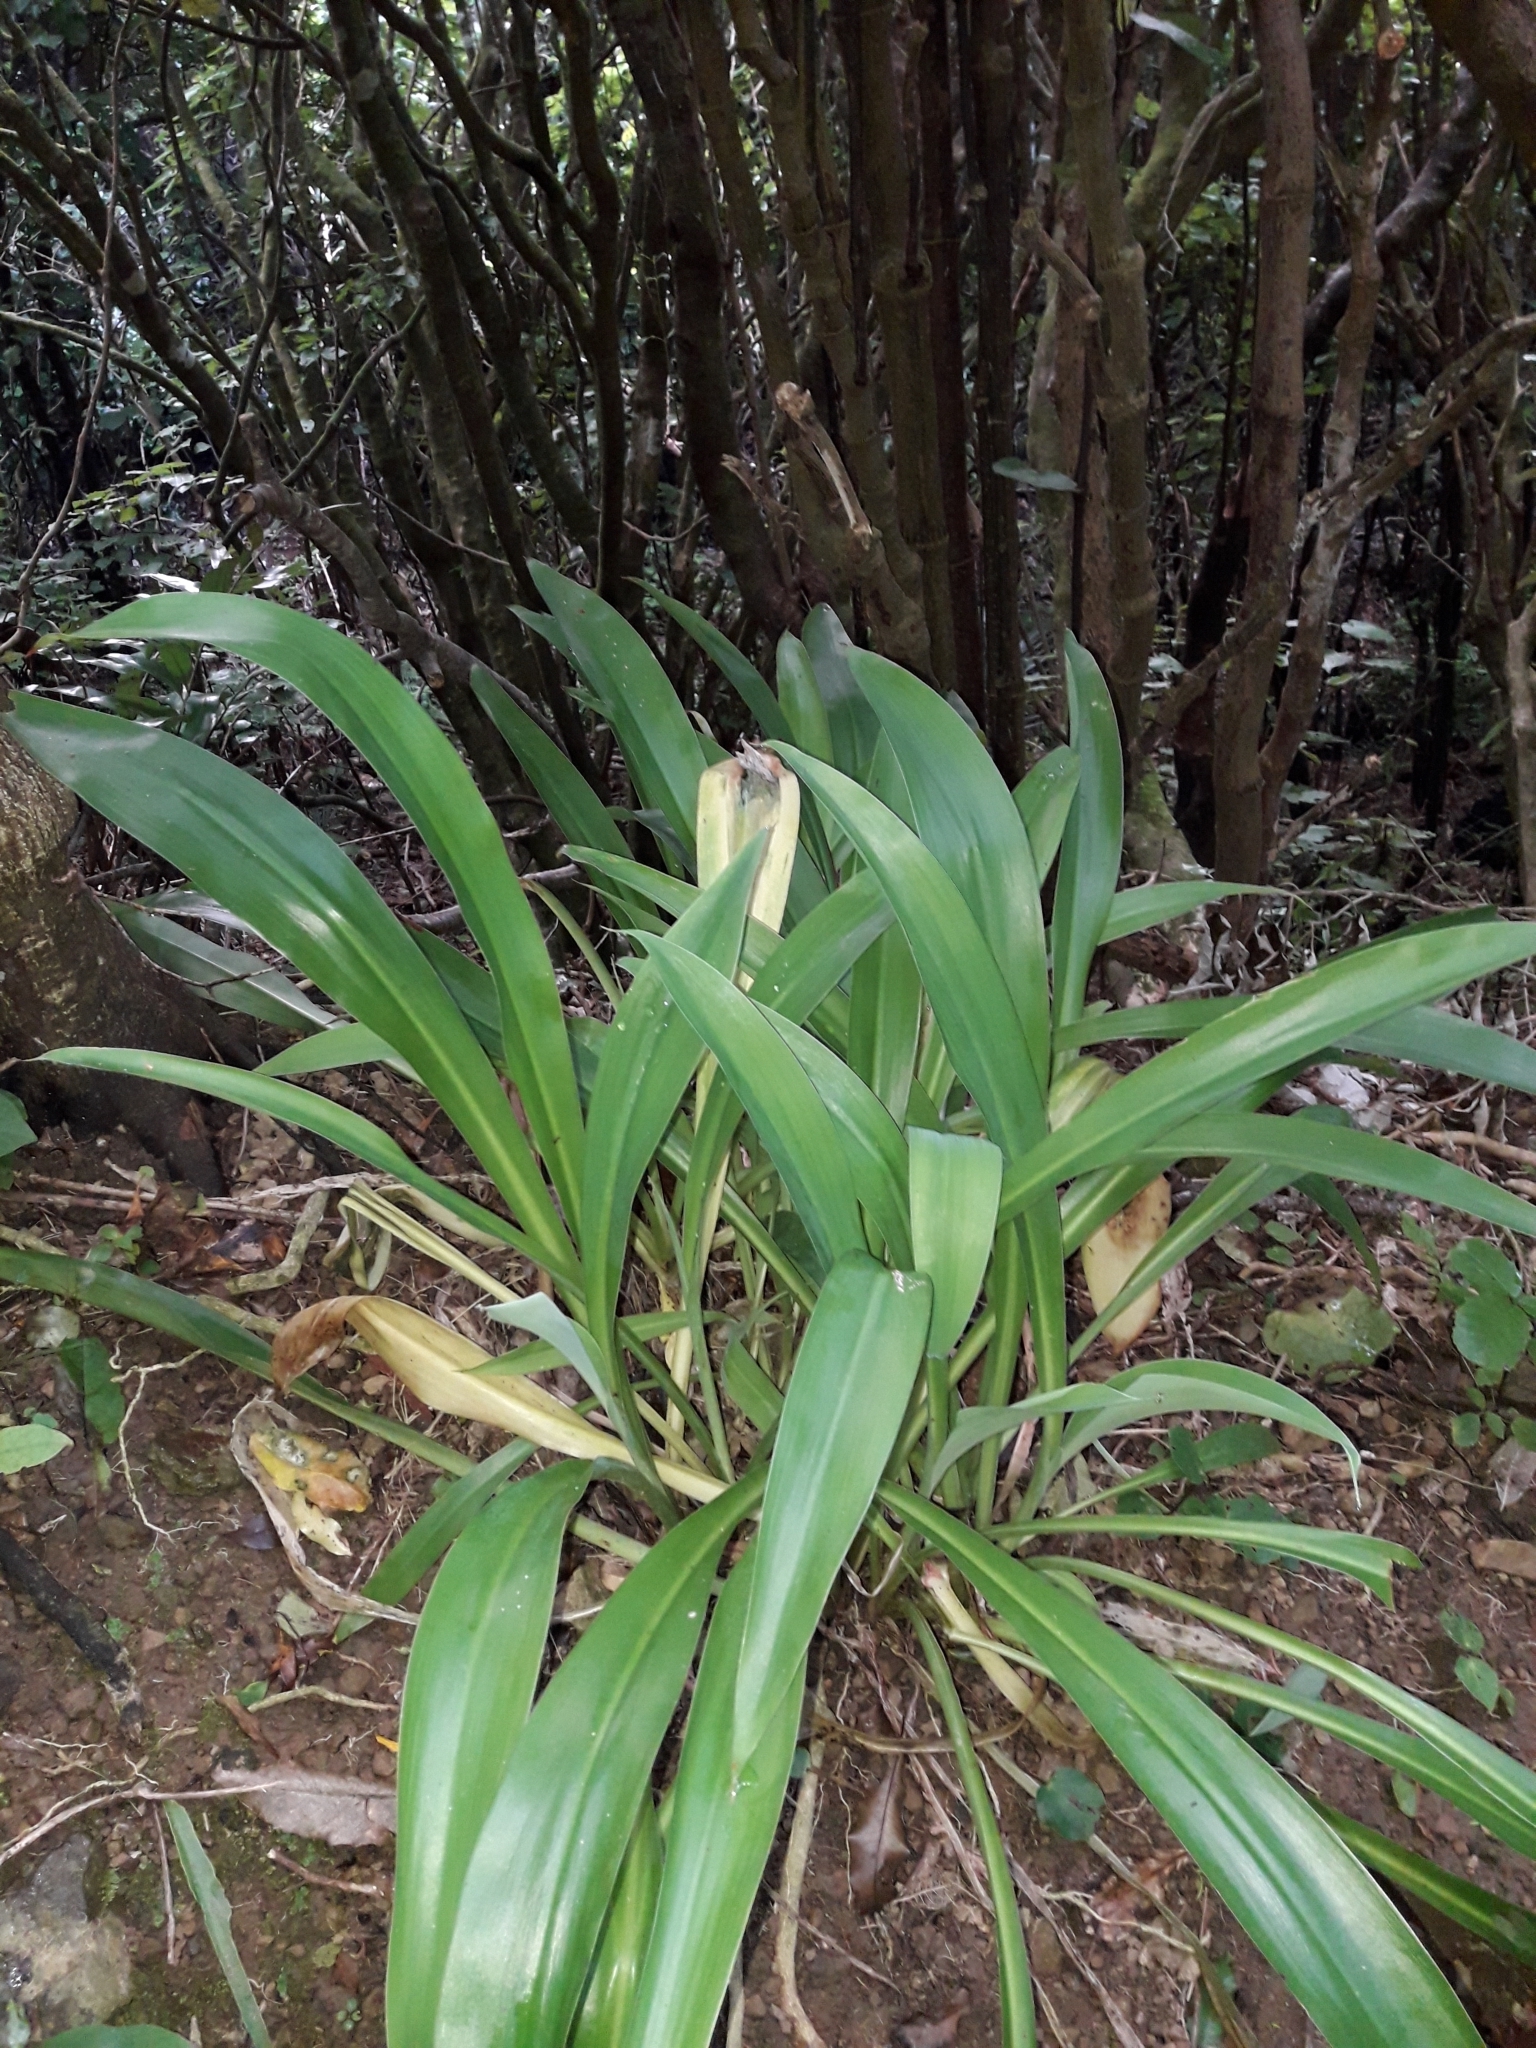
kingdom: Plantae
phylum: Tracheophyta
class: Liliopsida
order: Asparagales
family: Asparagaceae
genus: Arthropodium
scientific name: Arthropodium bifurcatum
